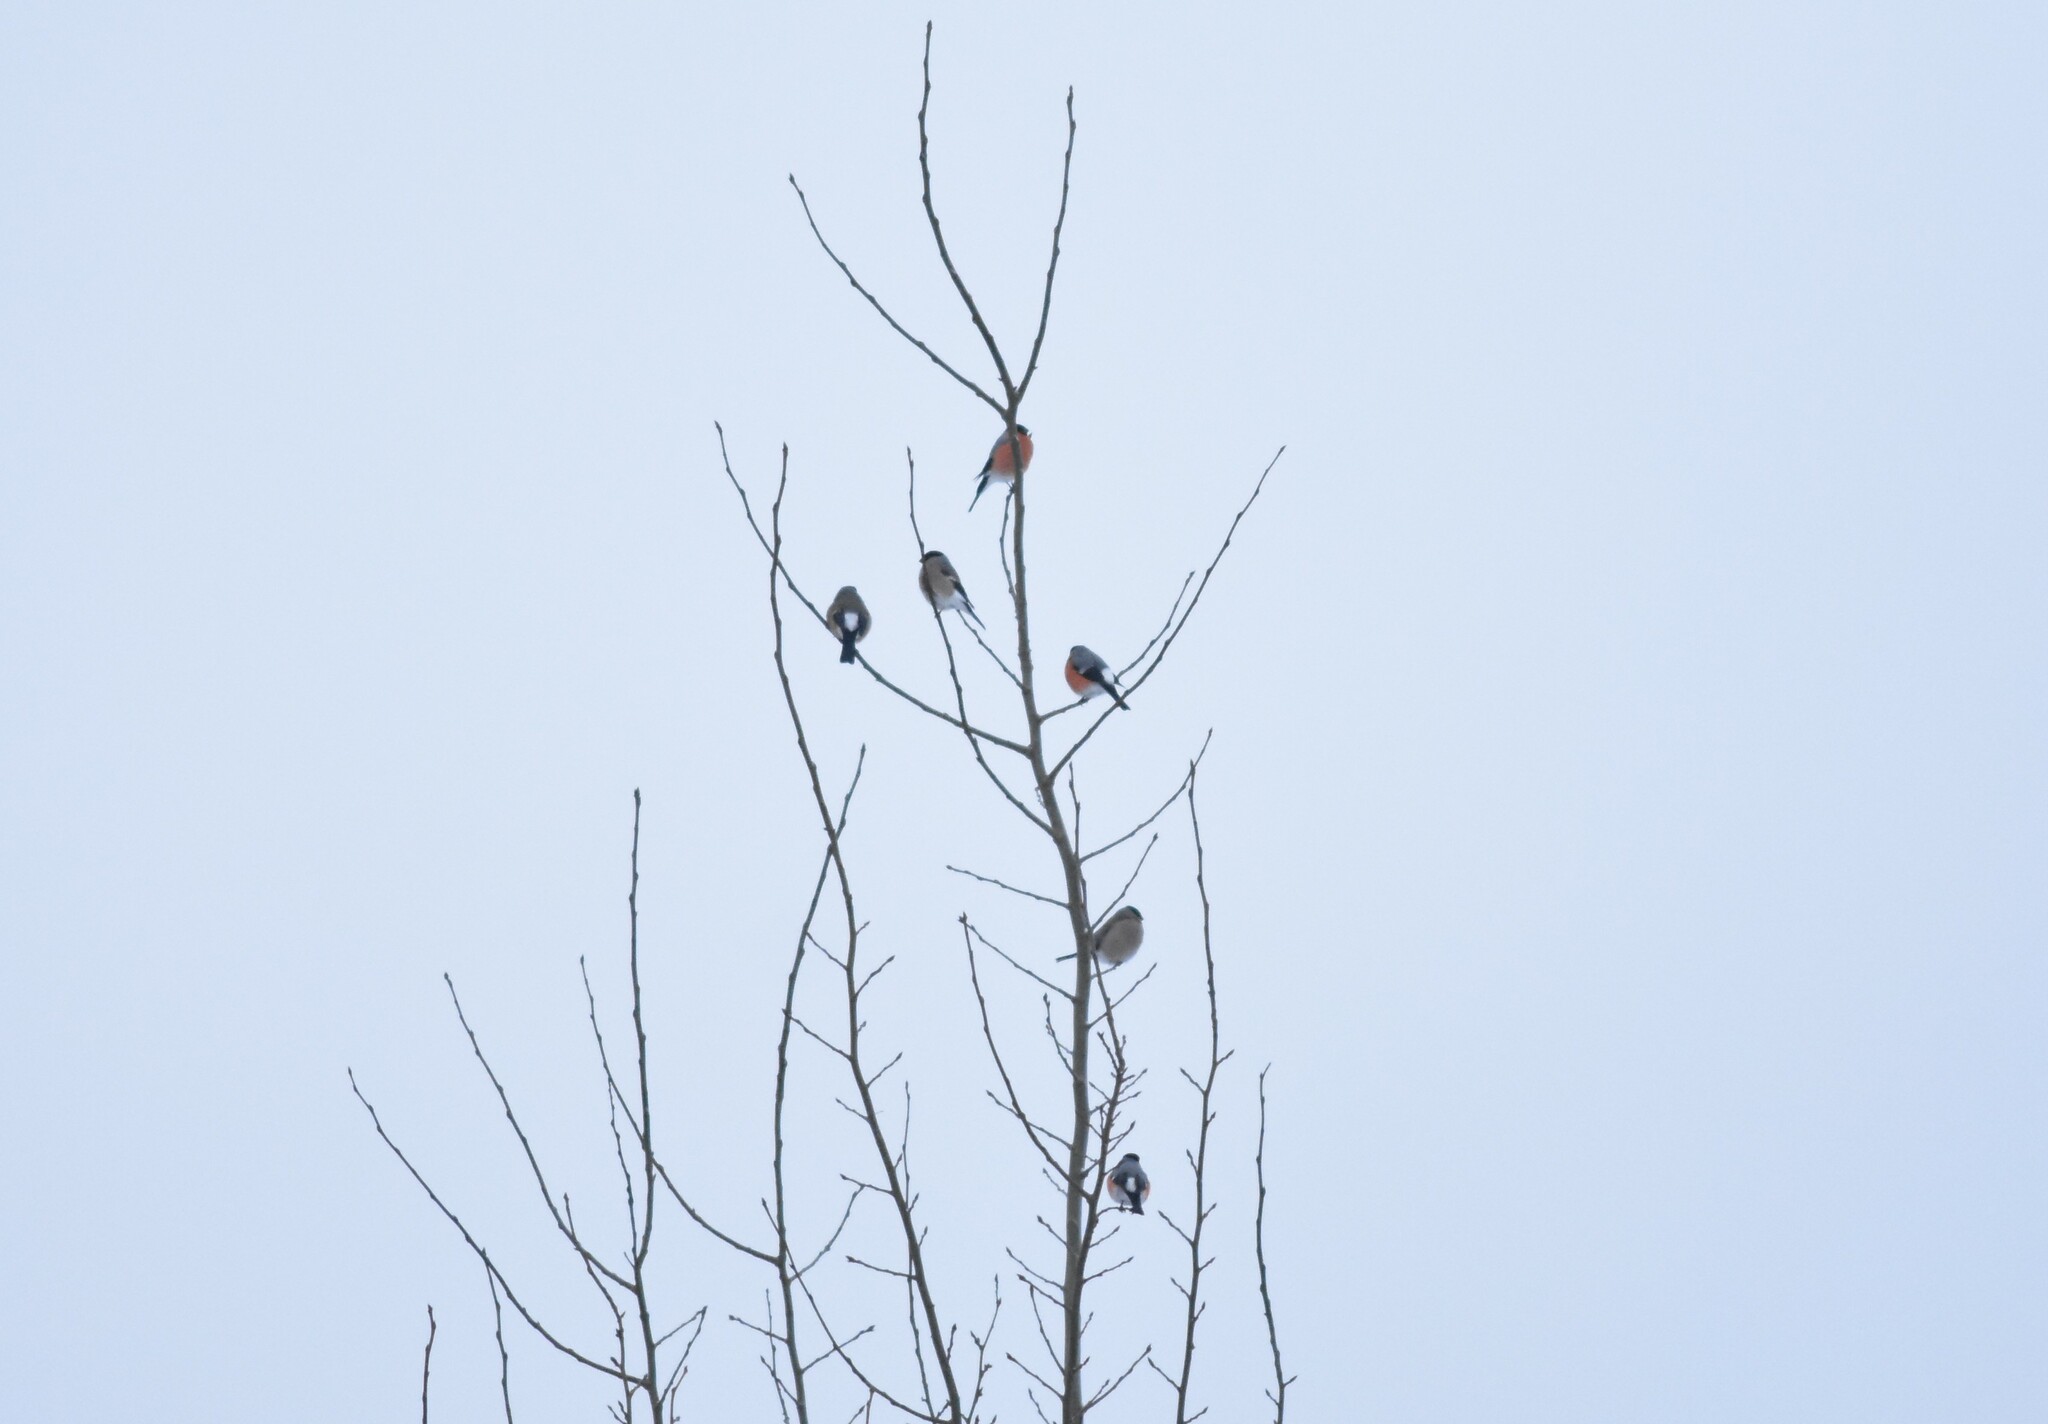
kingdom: Animalia
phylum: Chordata
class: Aves
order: Passeriformes
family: Fringillidae
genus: Pyrrhula
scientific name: Pyrrhula pyrrhula
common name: Eurasian bullfinch
